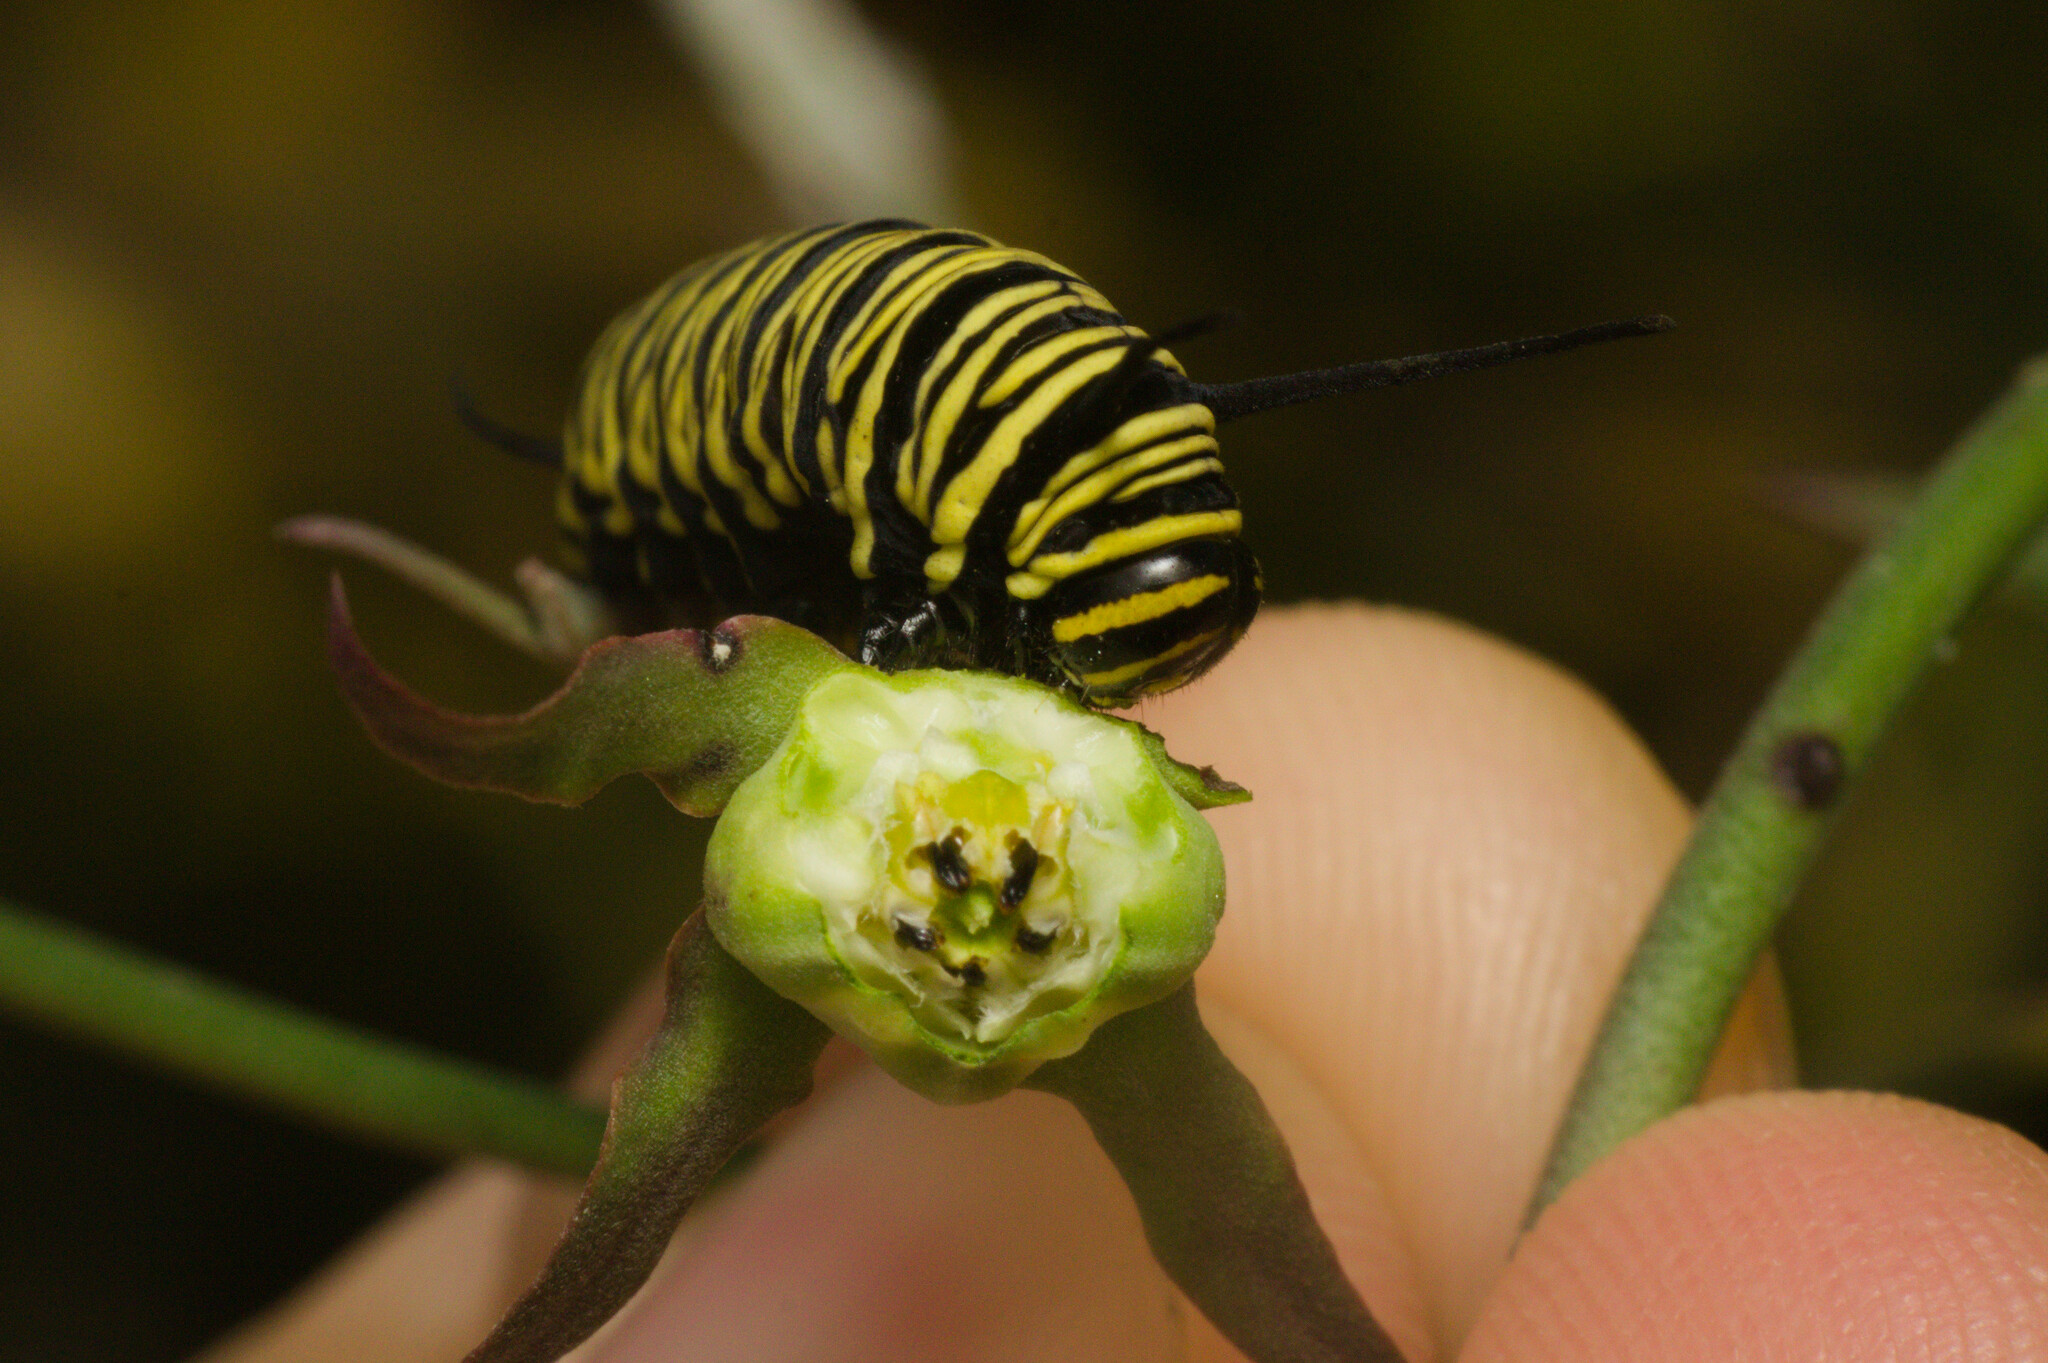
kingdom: Animalia
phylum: Arthropoda
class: Insecta
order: Lepidoptera
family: Nymphalidae
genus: Danaus
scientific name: Danaus erippus
